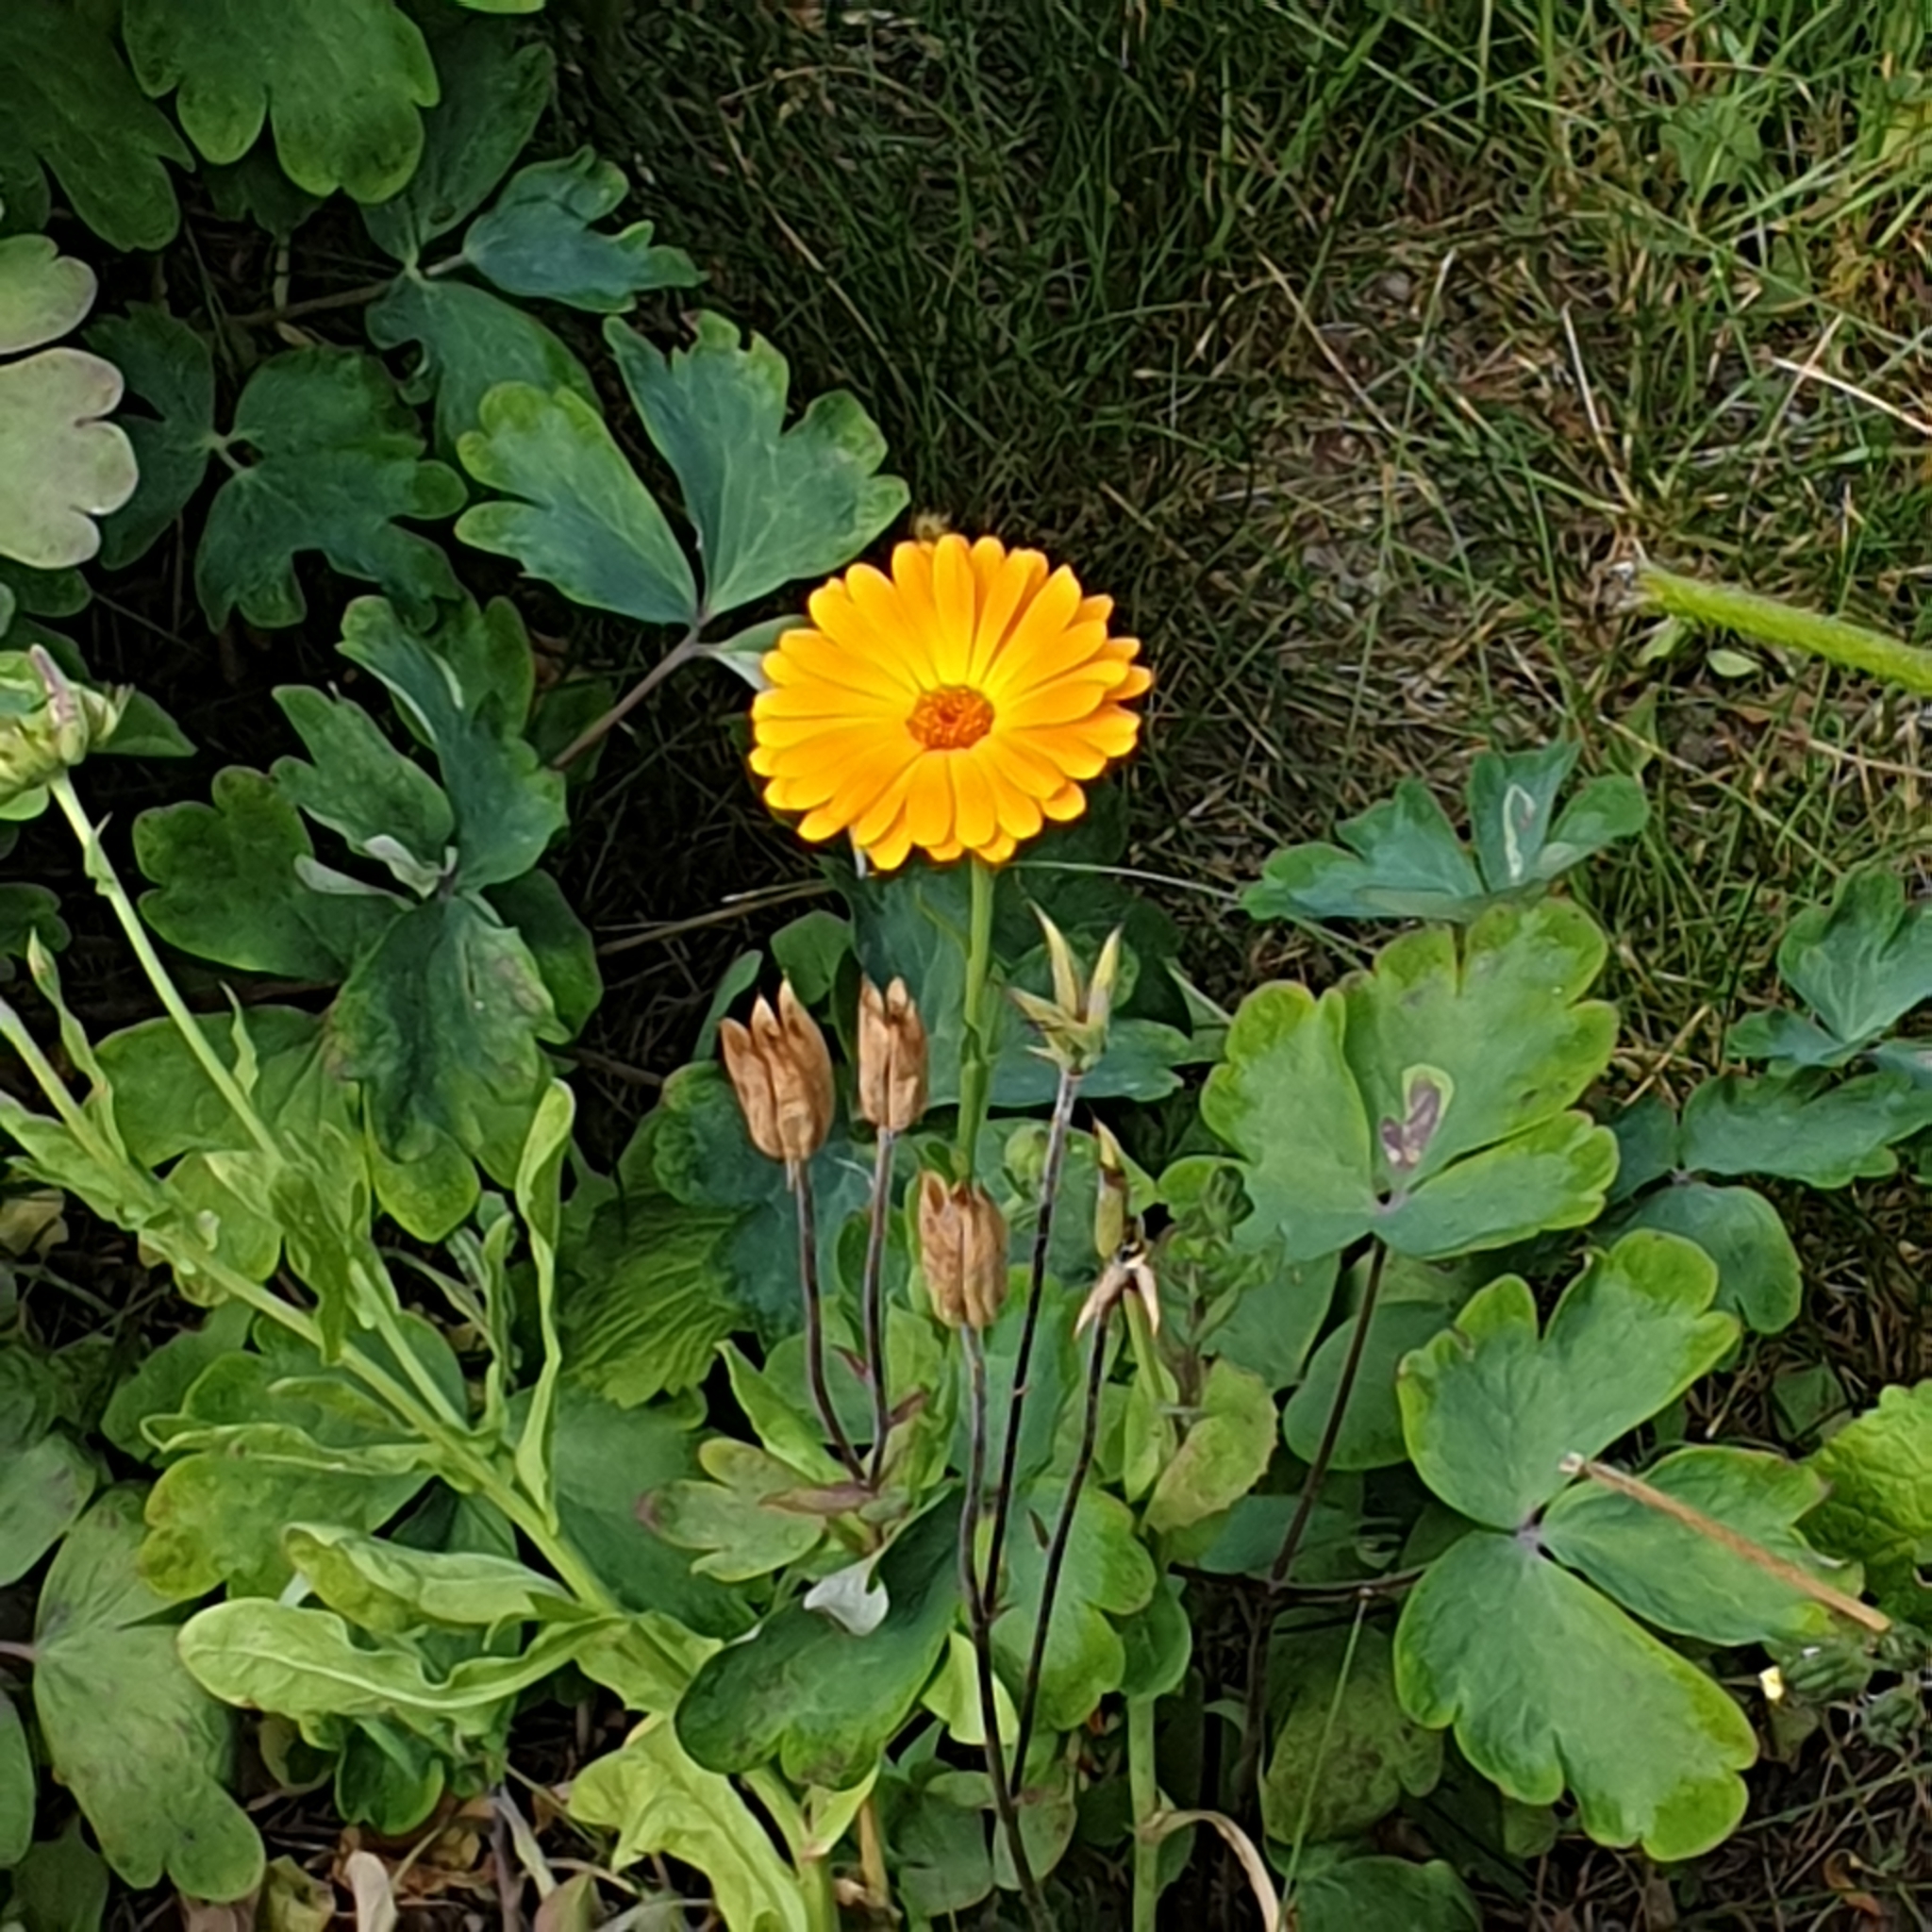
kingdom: Plantae
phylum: Tracheophyta
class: Magnoliopsida
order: Asterales
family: Asteraceae
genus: Calendula
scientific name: Calendula officinalis
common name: Pot marigold
